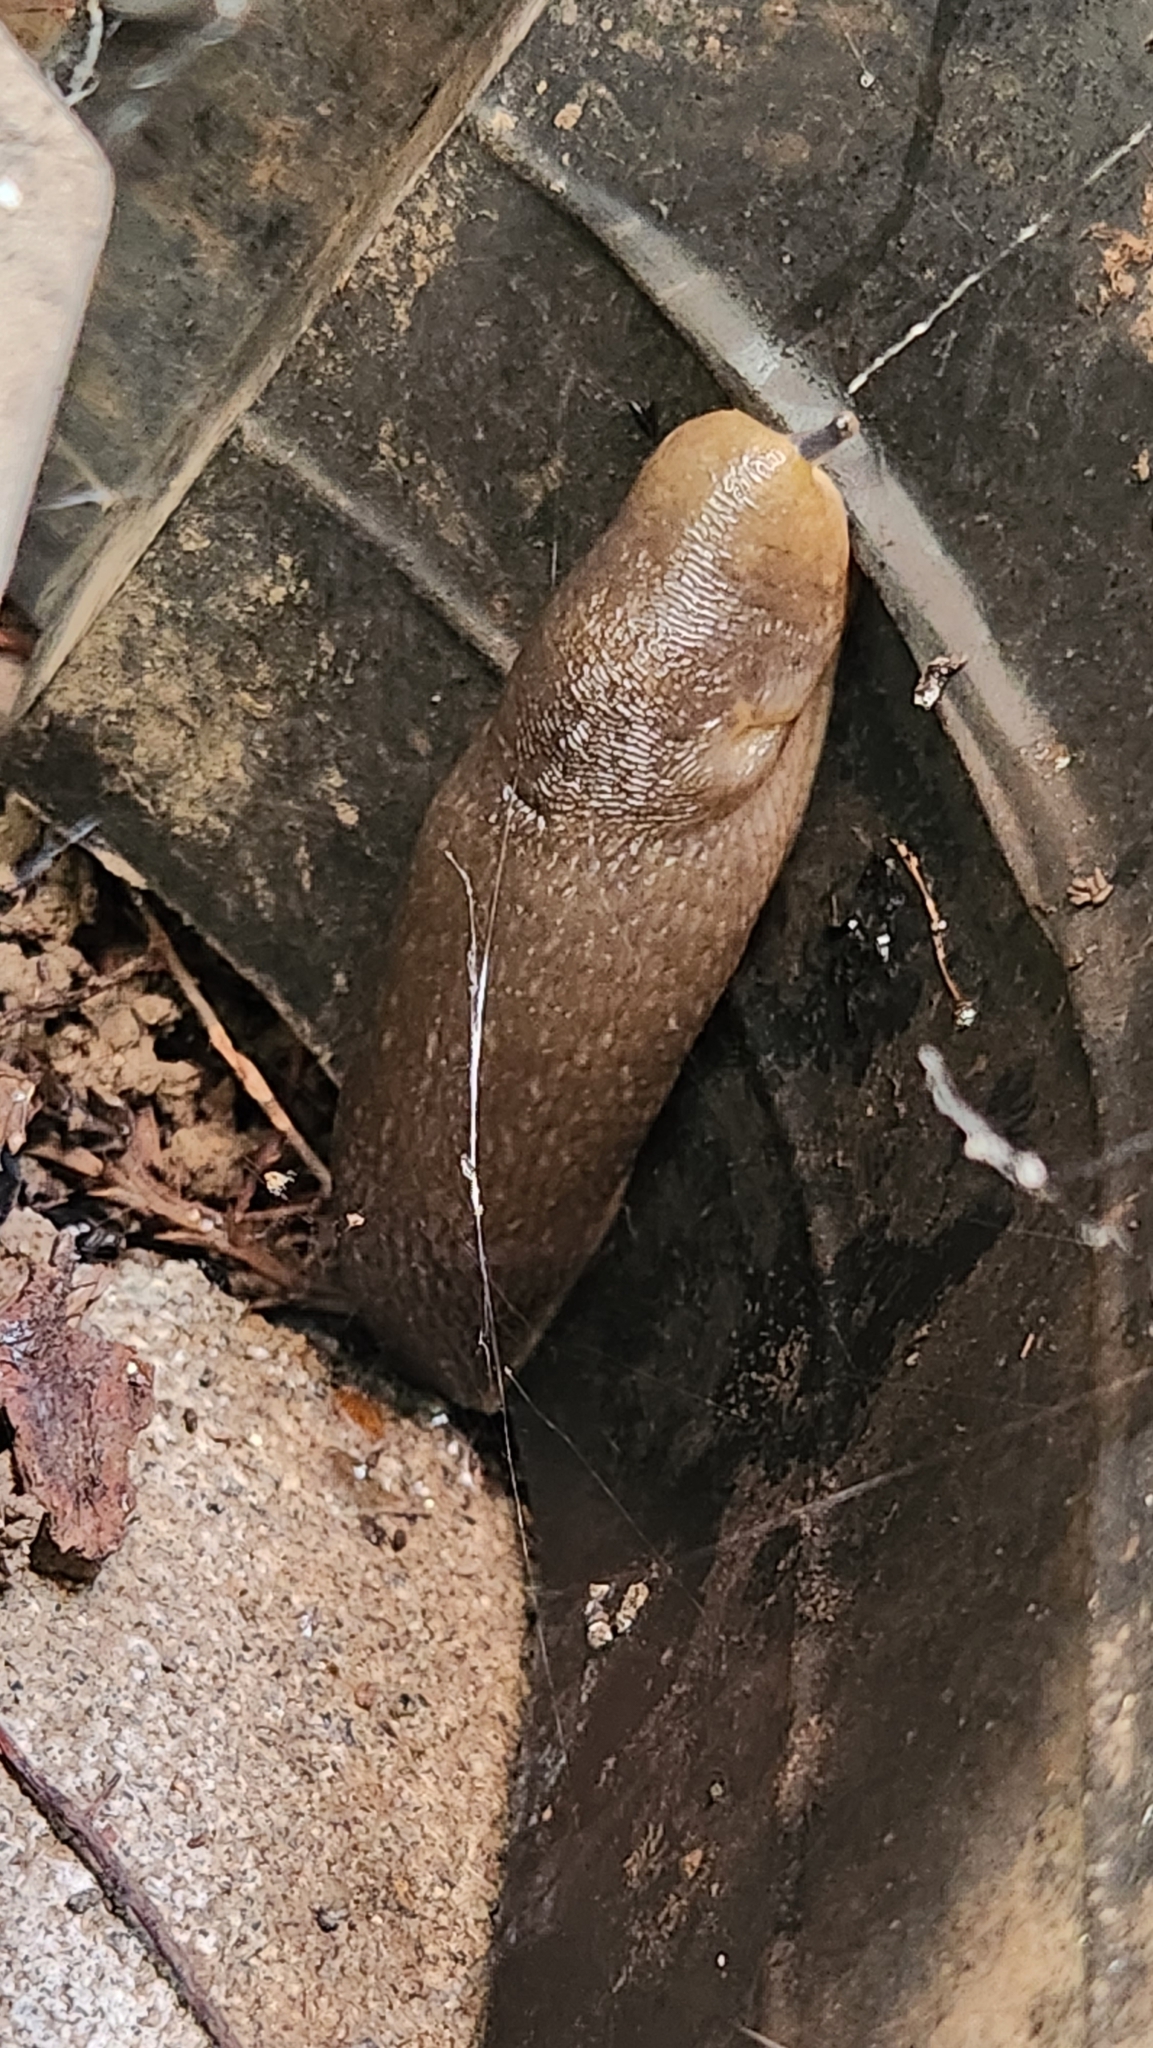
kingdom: Animalia
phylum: Mollusca
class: Gastropoda
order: Stylommatophora
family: Limacidae
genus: Limacus
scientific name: Limacus flavus
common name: Yellow gardenslug
